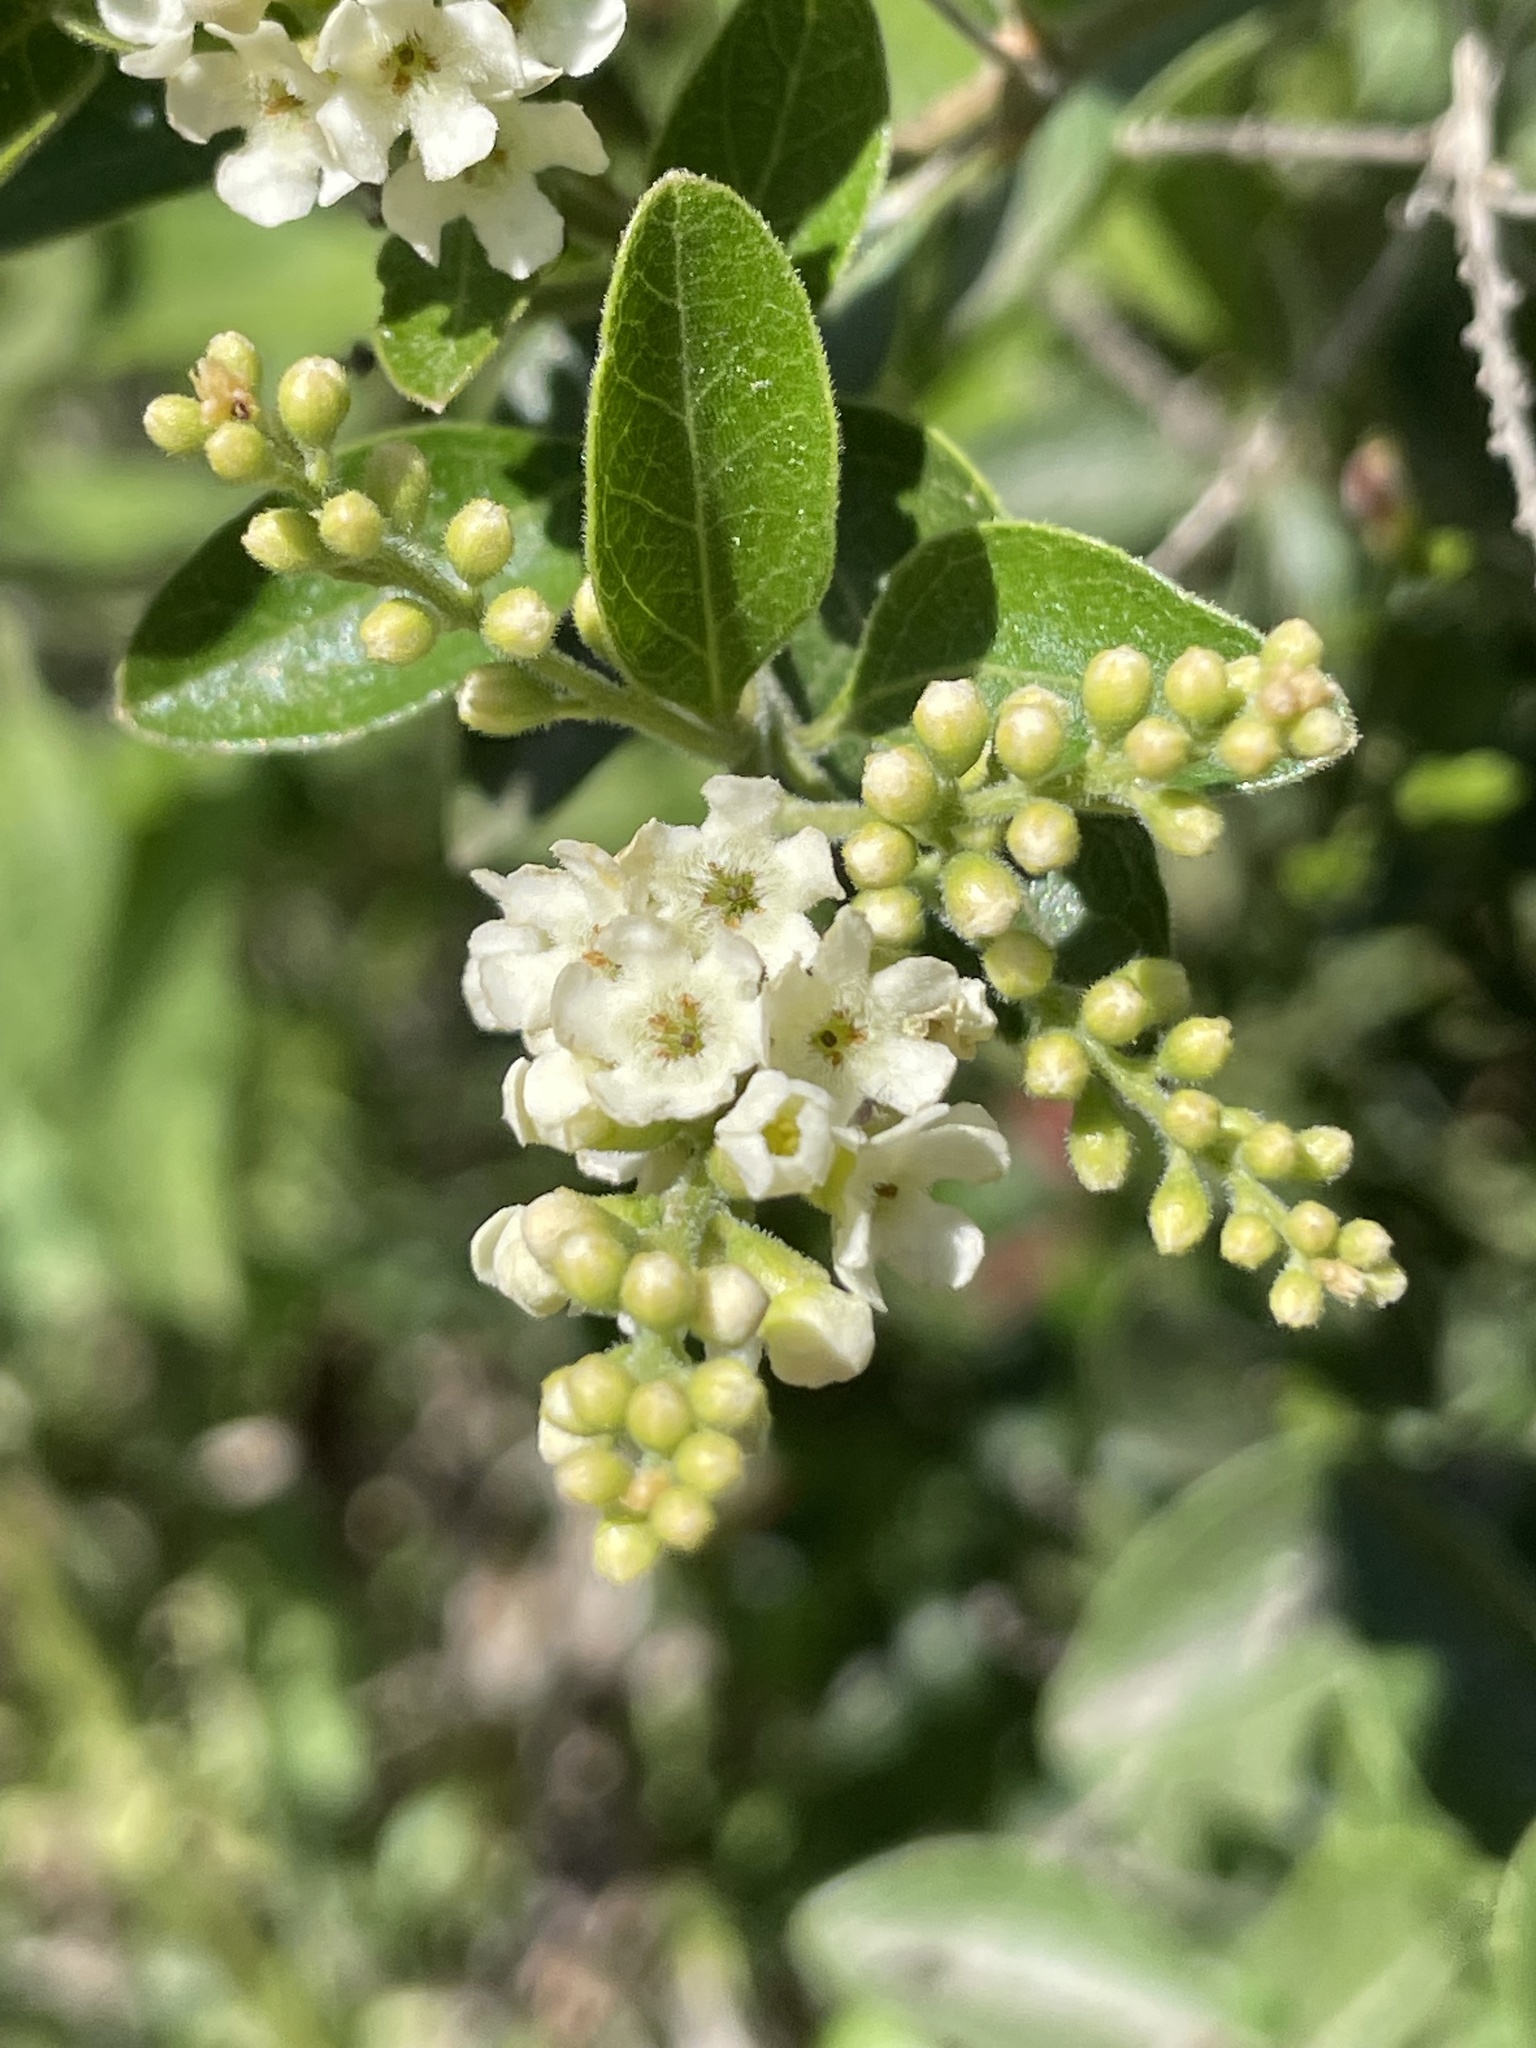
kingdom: Plantae
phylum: Tracheophyta
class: Magnoliopsida
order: Lamiales
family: Verbenaceae
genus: Citharexylum
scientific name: Citharexylum berlandieri
